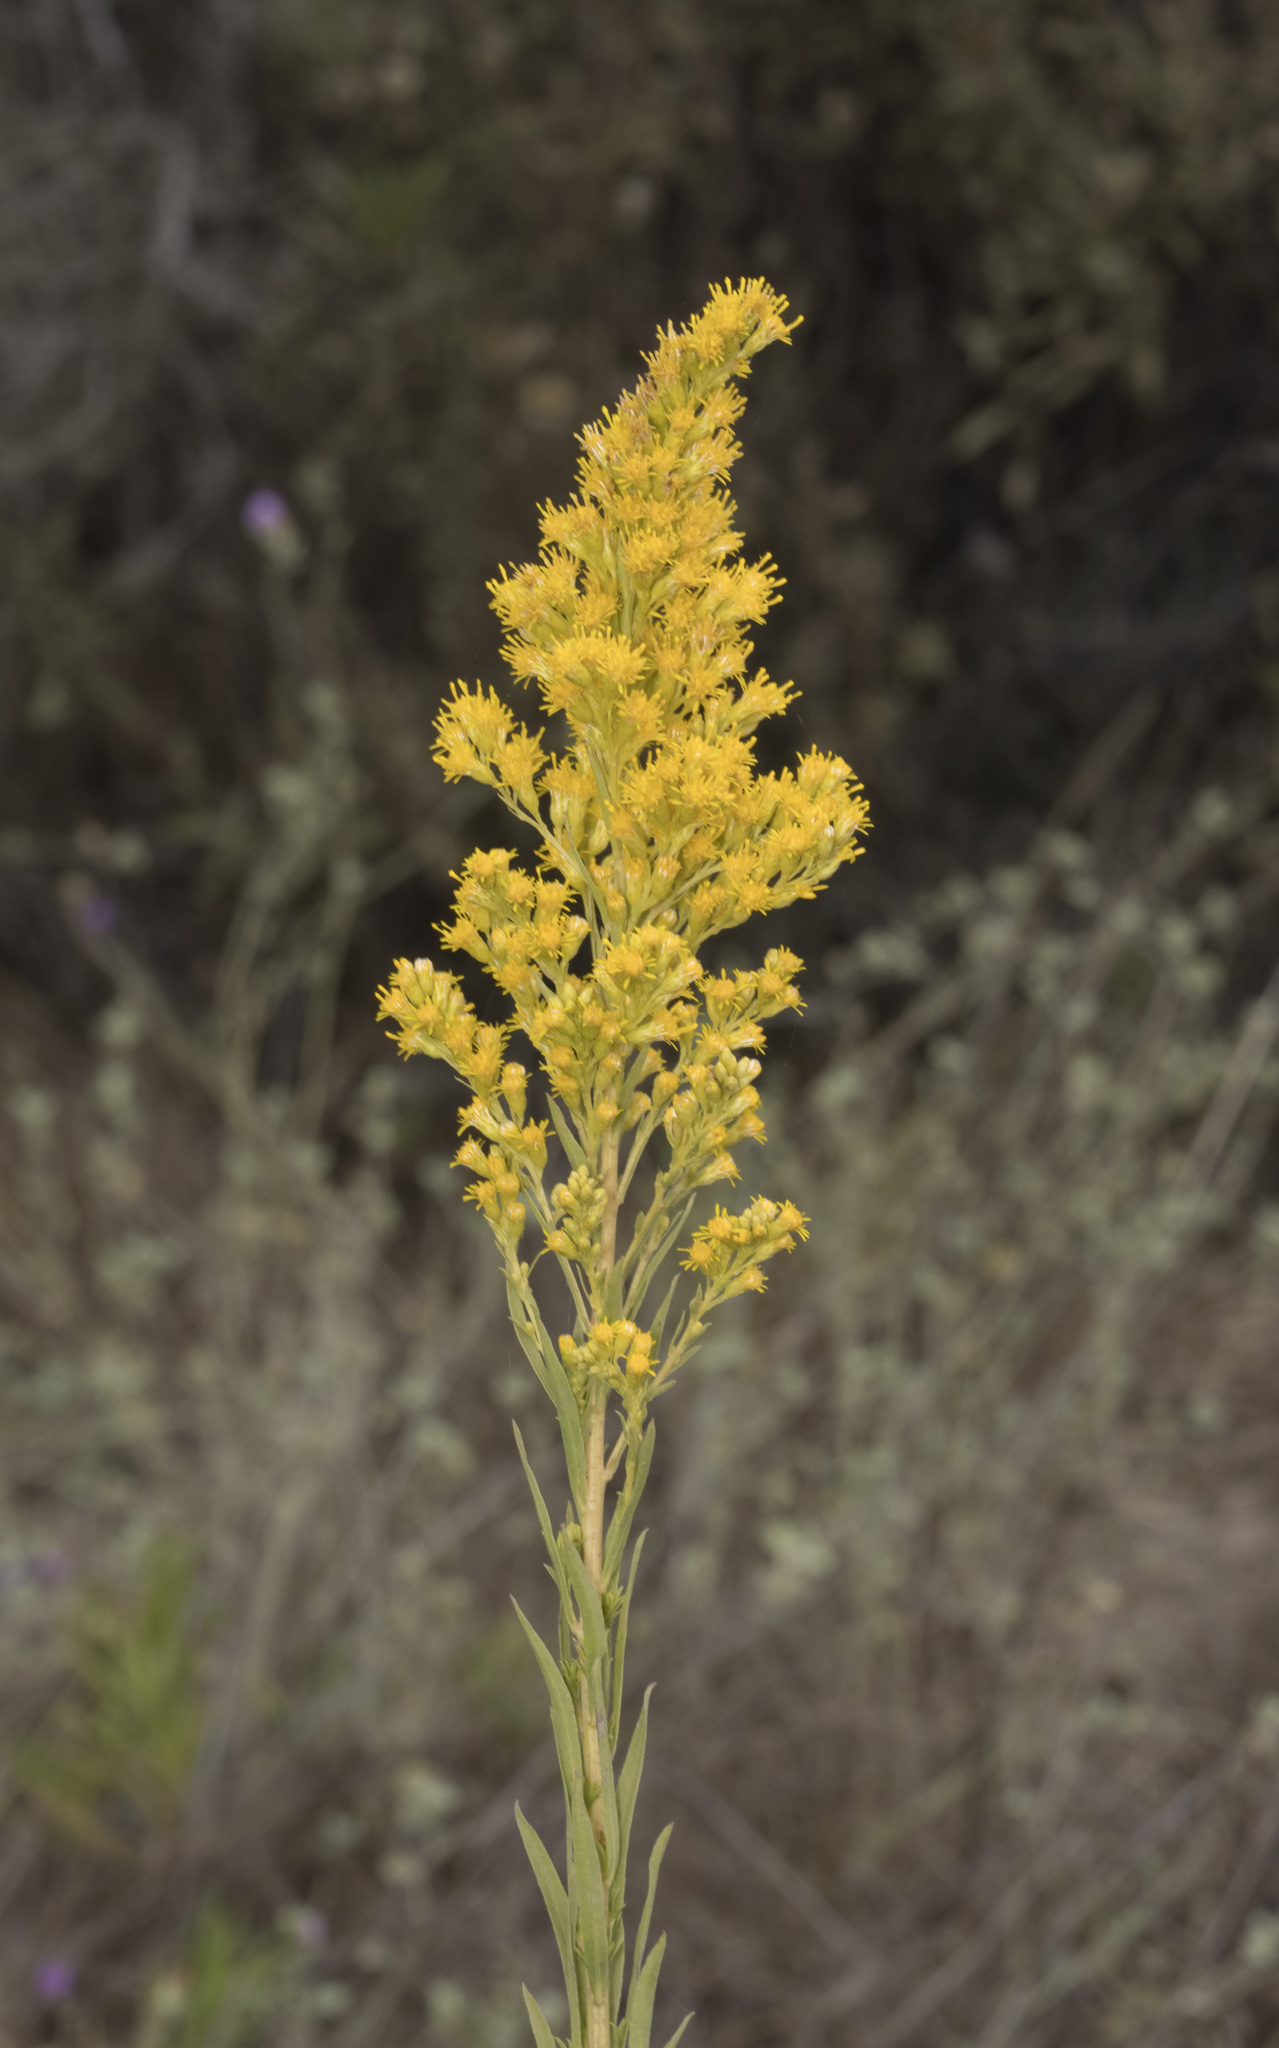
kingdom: Plantae
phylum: Tracheophyta
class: Magnoliopsida
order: Asterales
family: Asteraceae
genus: Solidago
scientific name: Solidago chilensis
